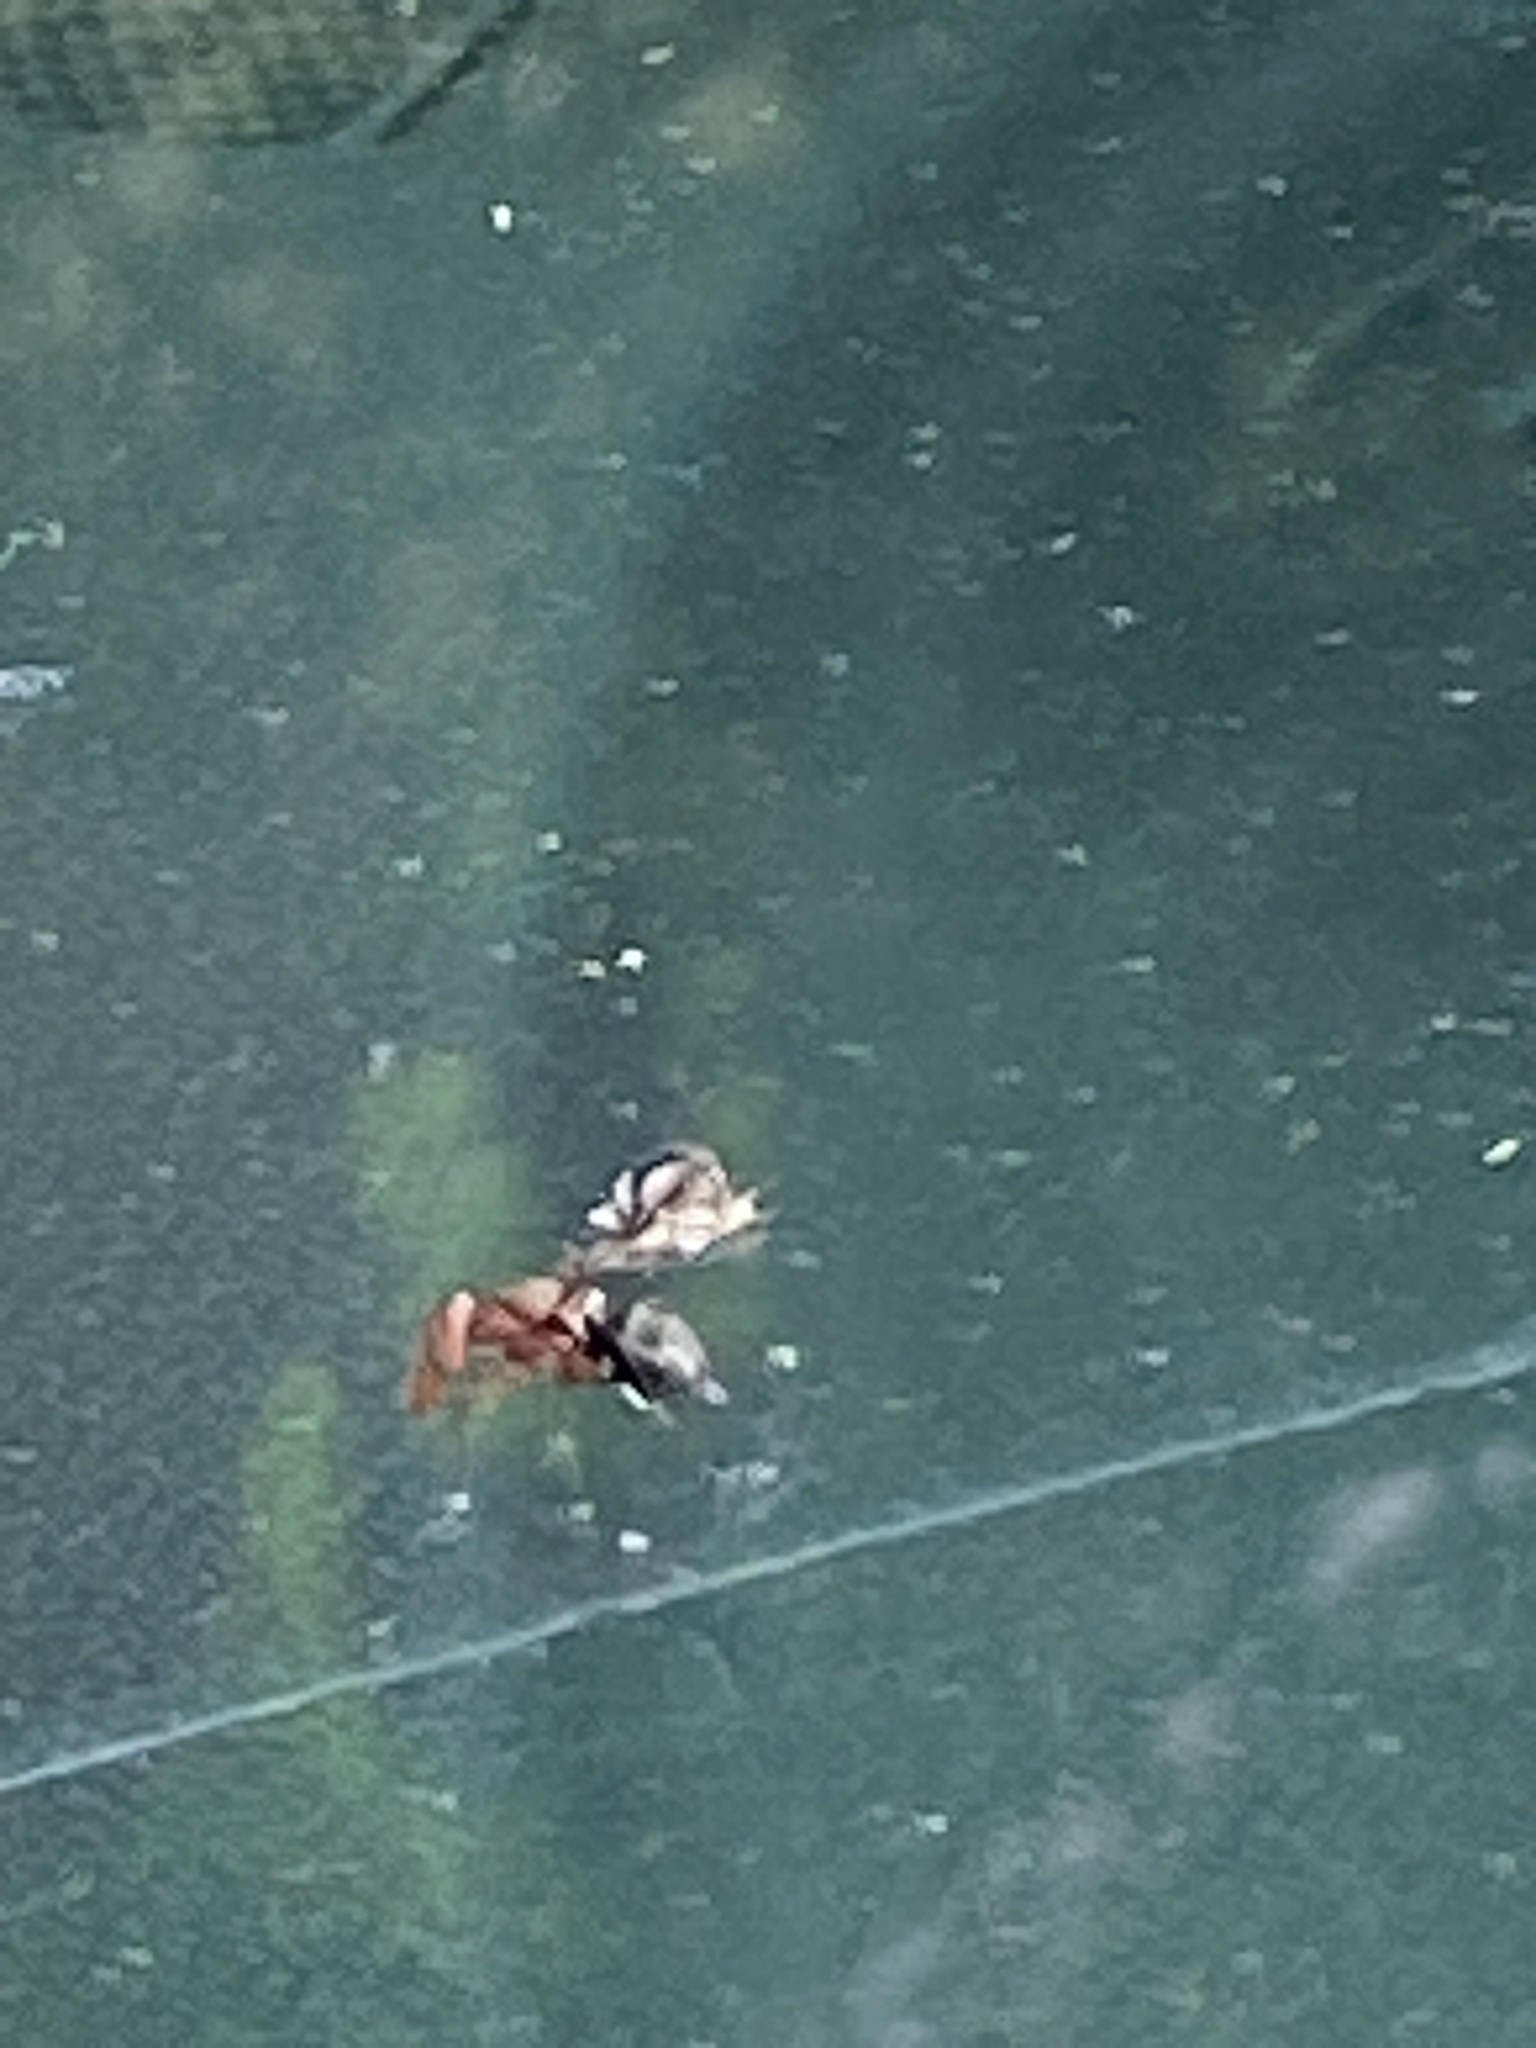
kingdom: Animalia
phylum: Arthropoda
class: Insecta
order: Diptera
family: Ulidiidae
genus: Delphinia
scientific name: Delphinia picta
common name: Common picture-winged fly
